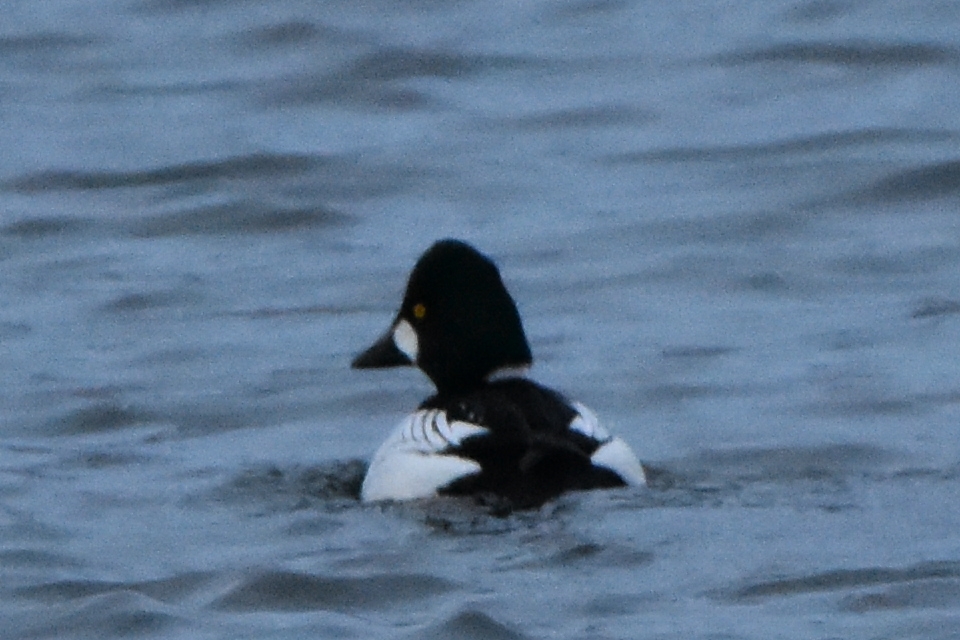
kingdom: Animalia
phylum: Chordata
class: Aves
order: Anseriformes
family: Anatidae
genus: Bucephala
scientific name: Bucephala clangula
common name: Common goldeneye
